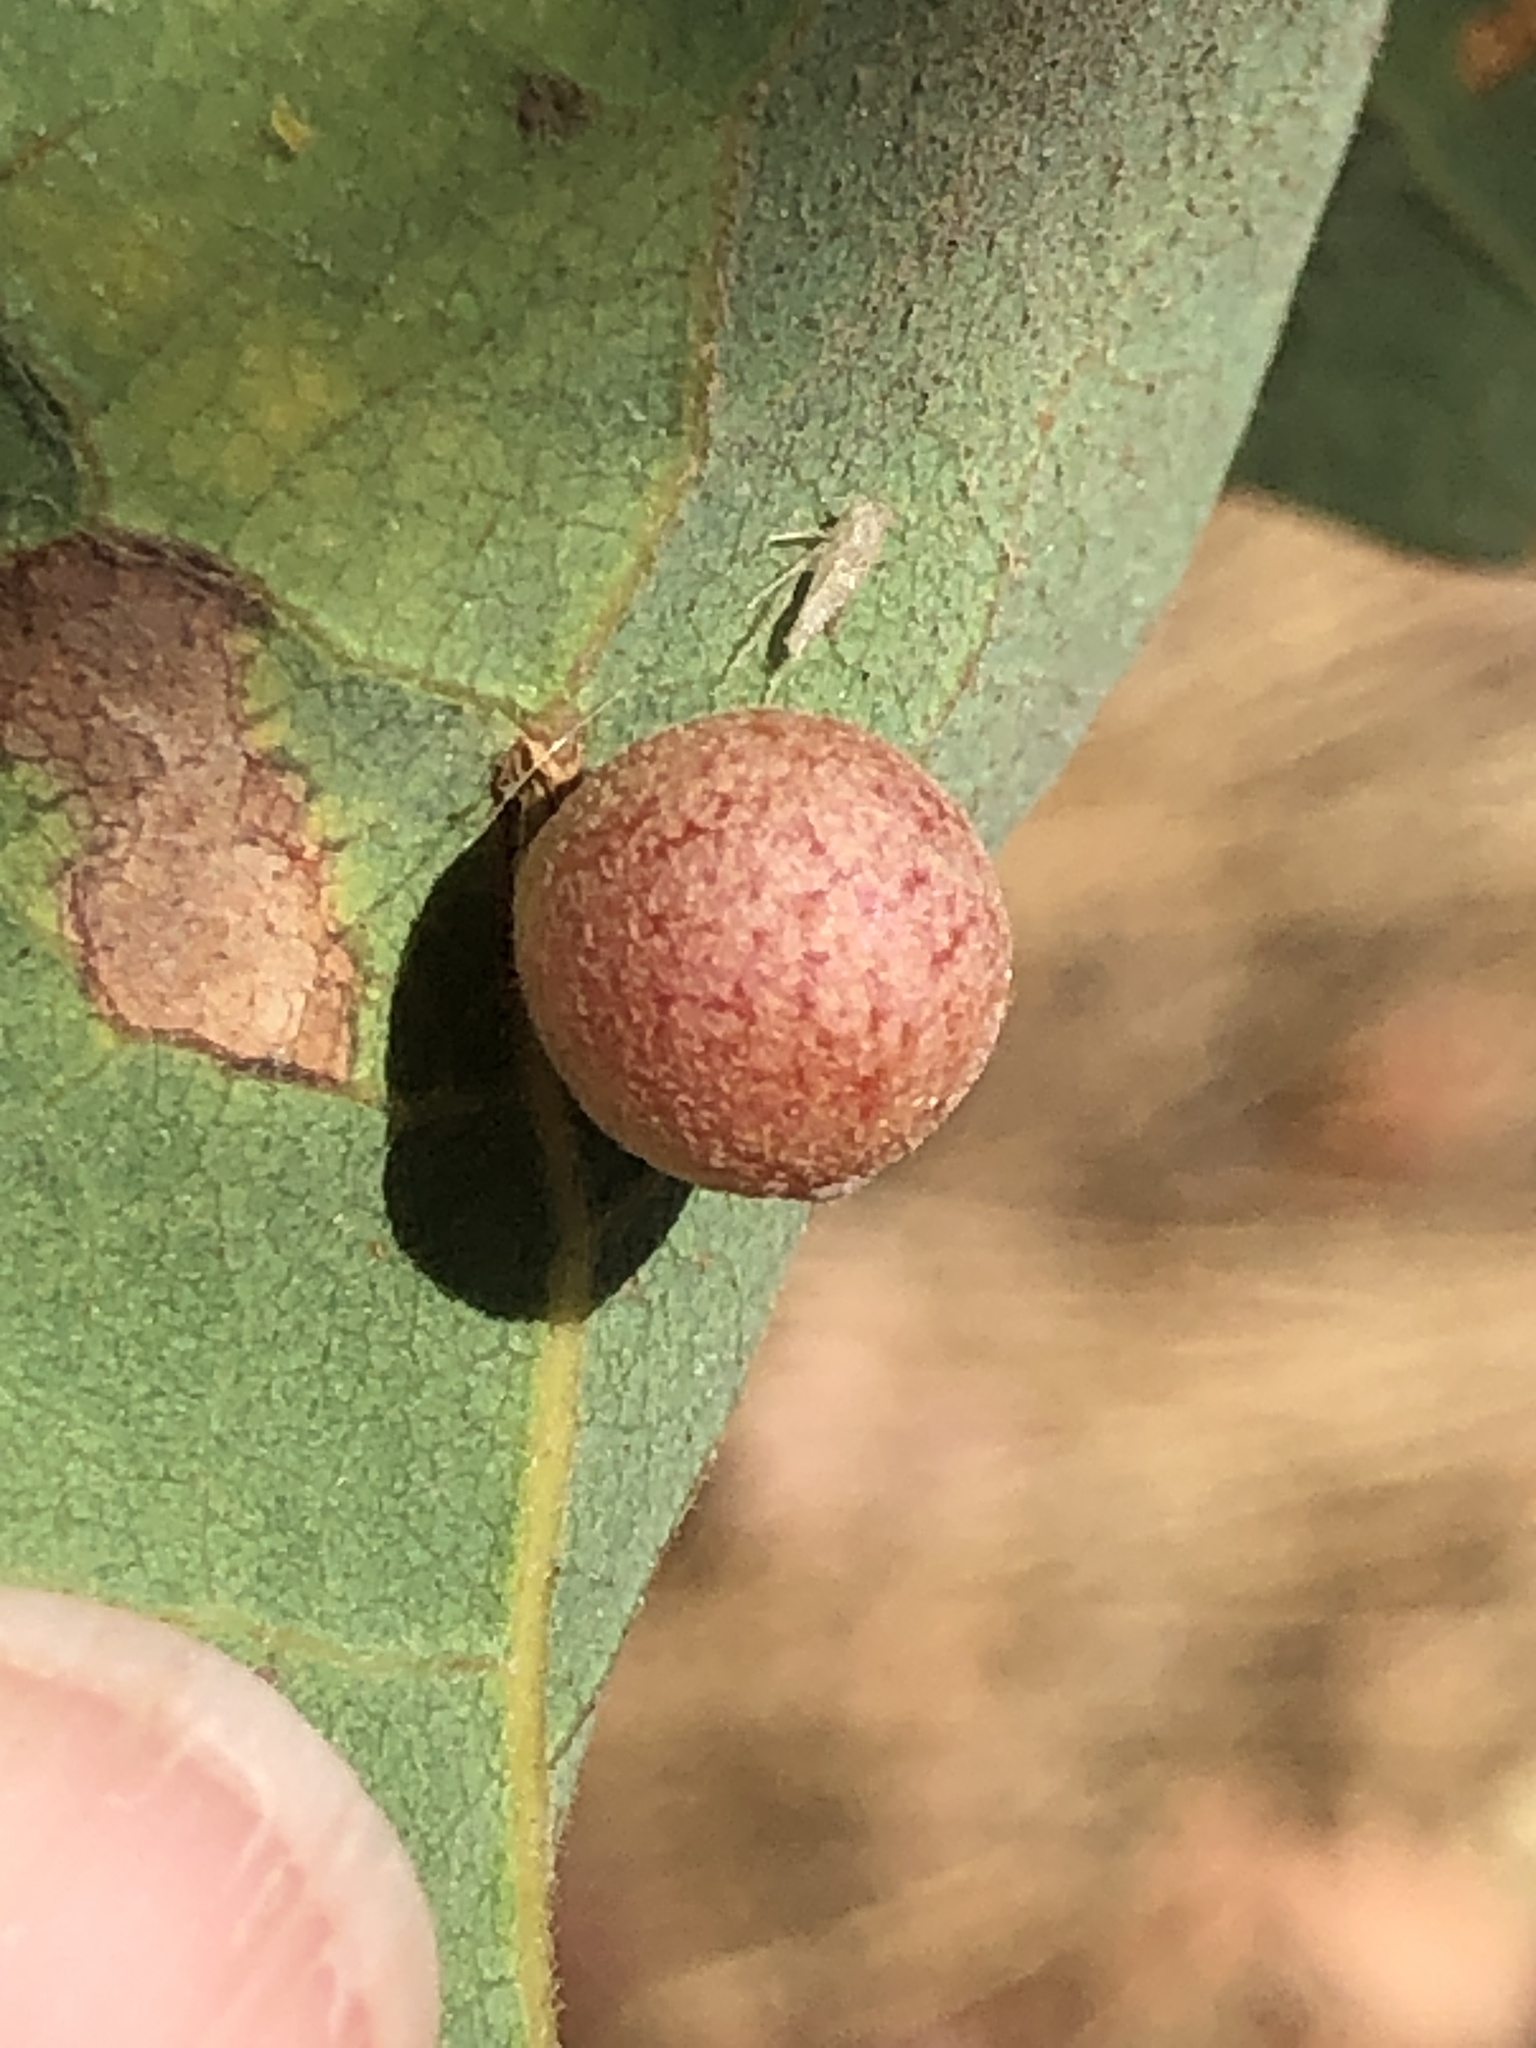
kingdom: Animalia
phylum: Arthropoda
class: Insecta
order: Hymenoptera
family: Cynipidae
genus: Andricus
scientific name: Andricus
